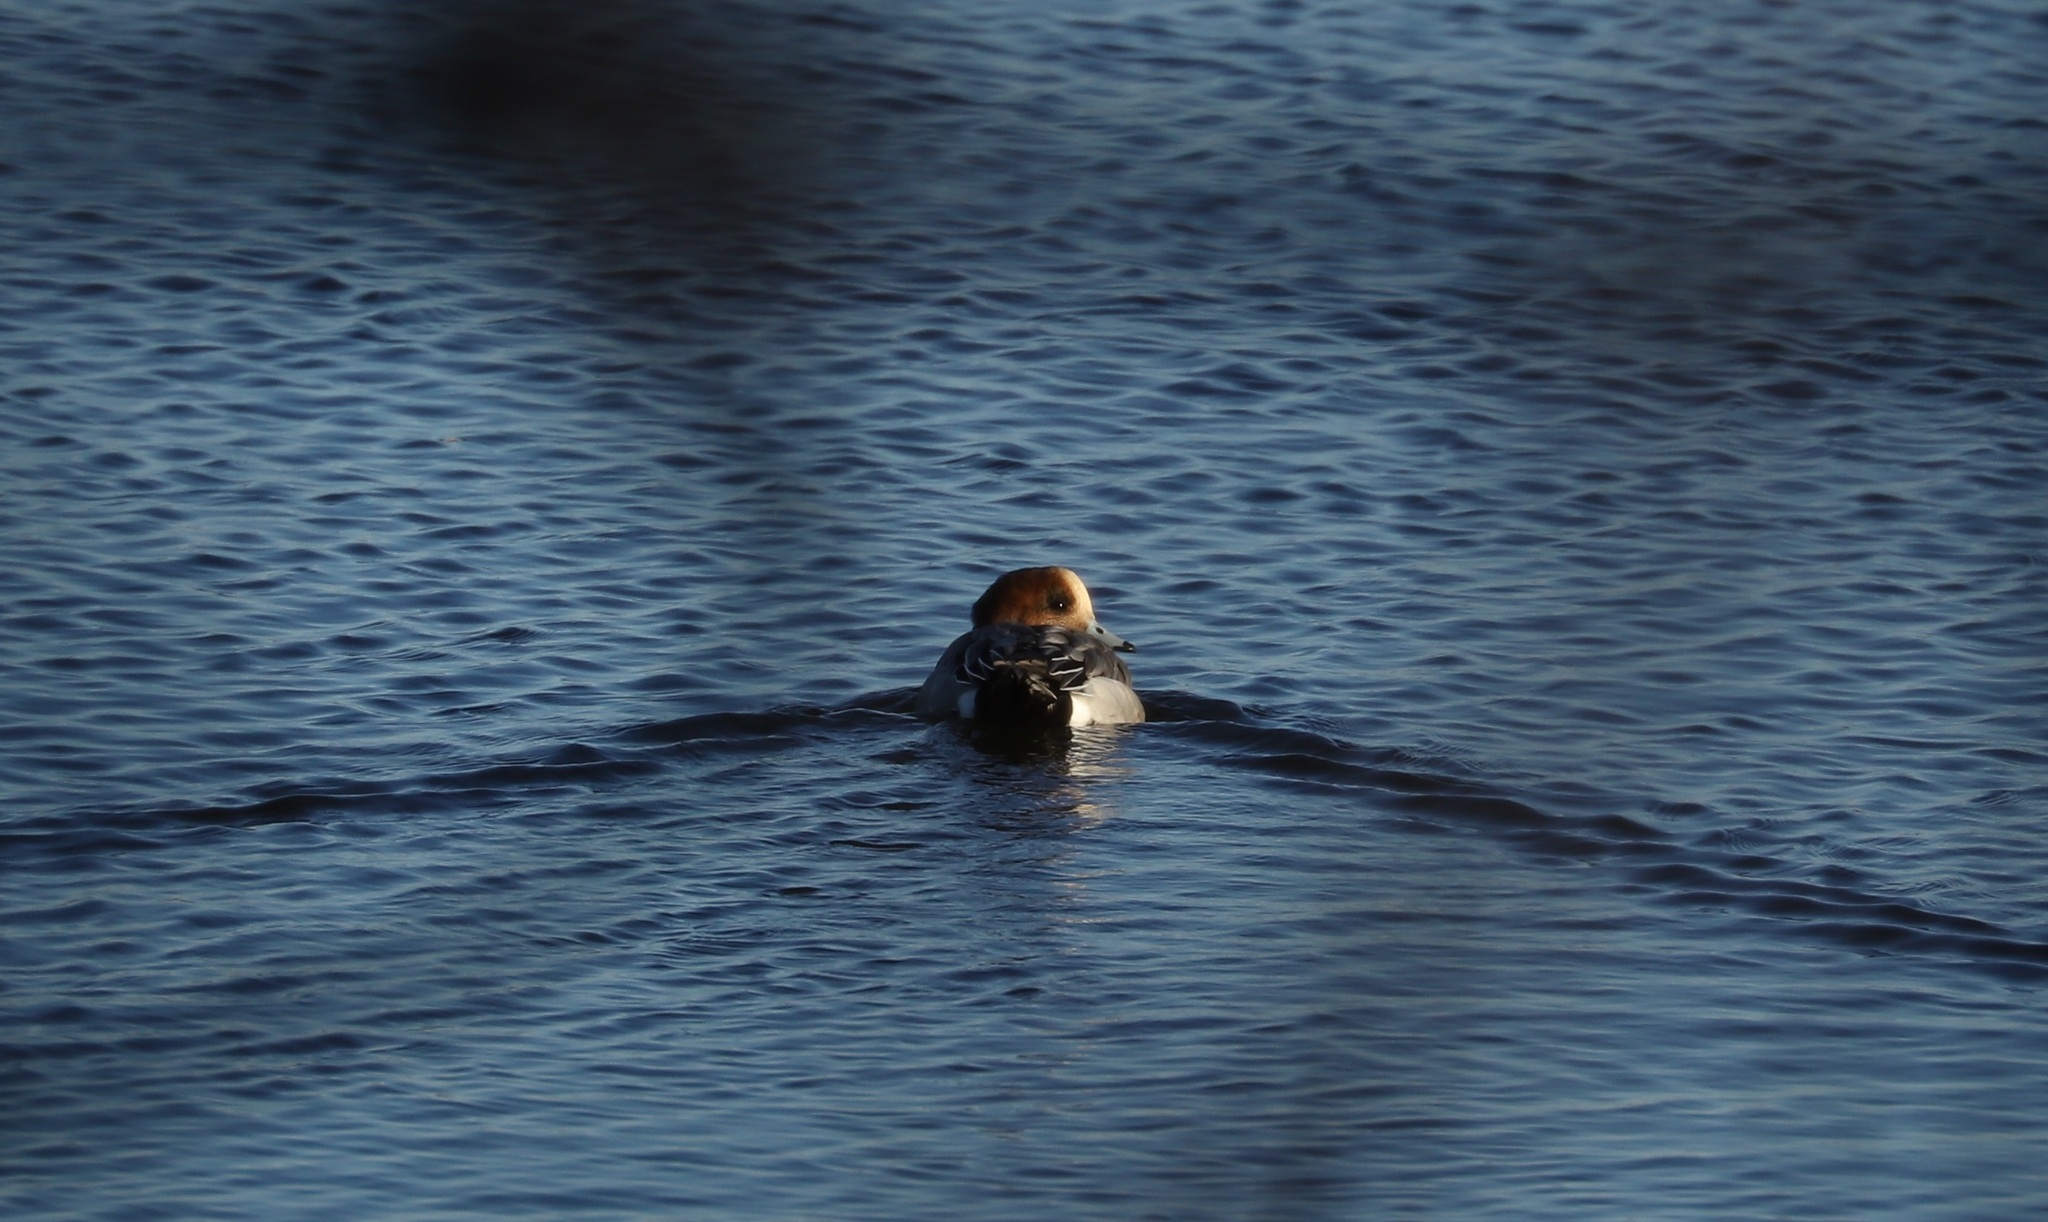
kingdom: Animalia
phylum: Chordata
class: Aves
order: Anseriformes
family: Anatidae
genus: Mareca
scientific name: Mareca penelope
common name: Eurasian wigeon
